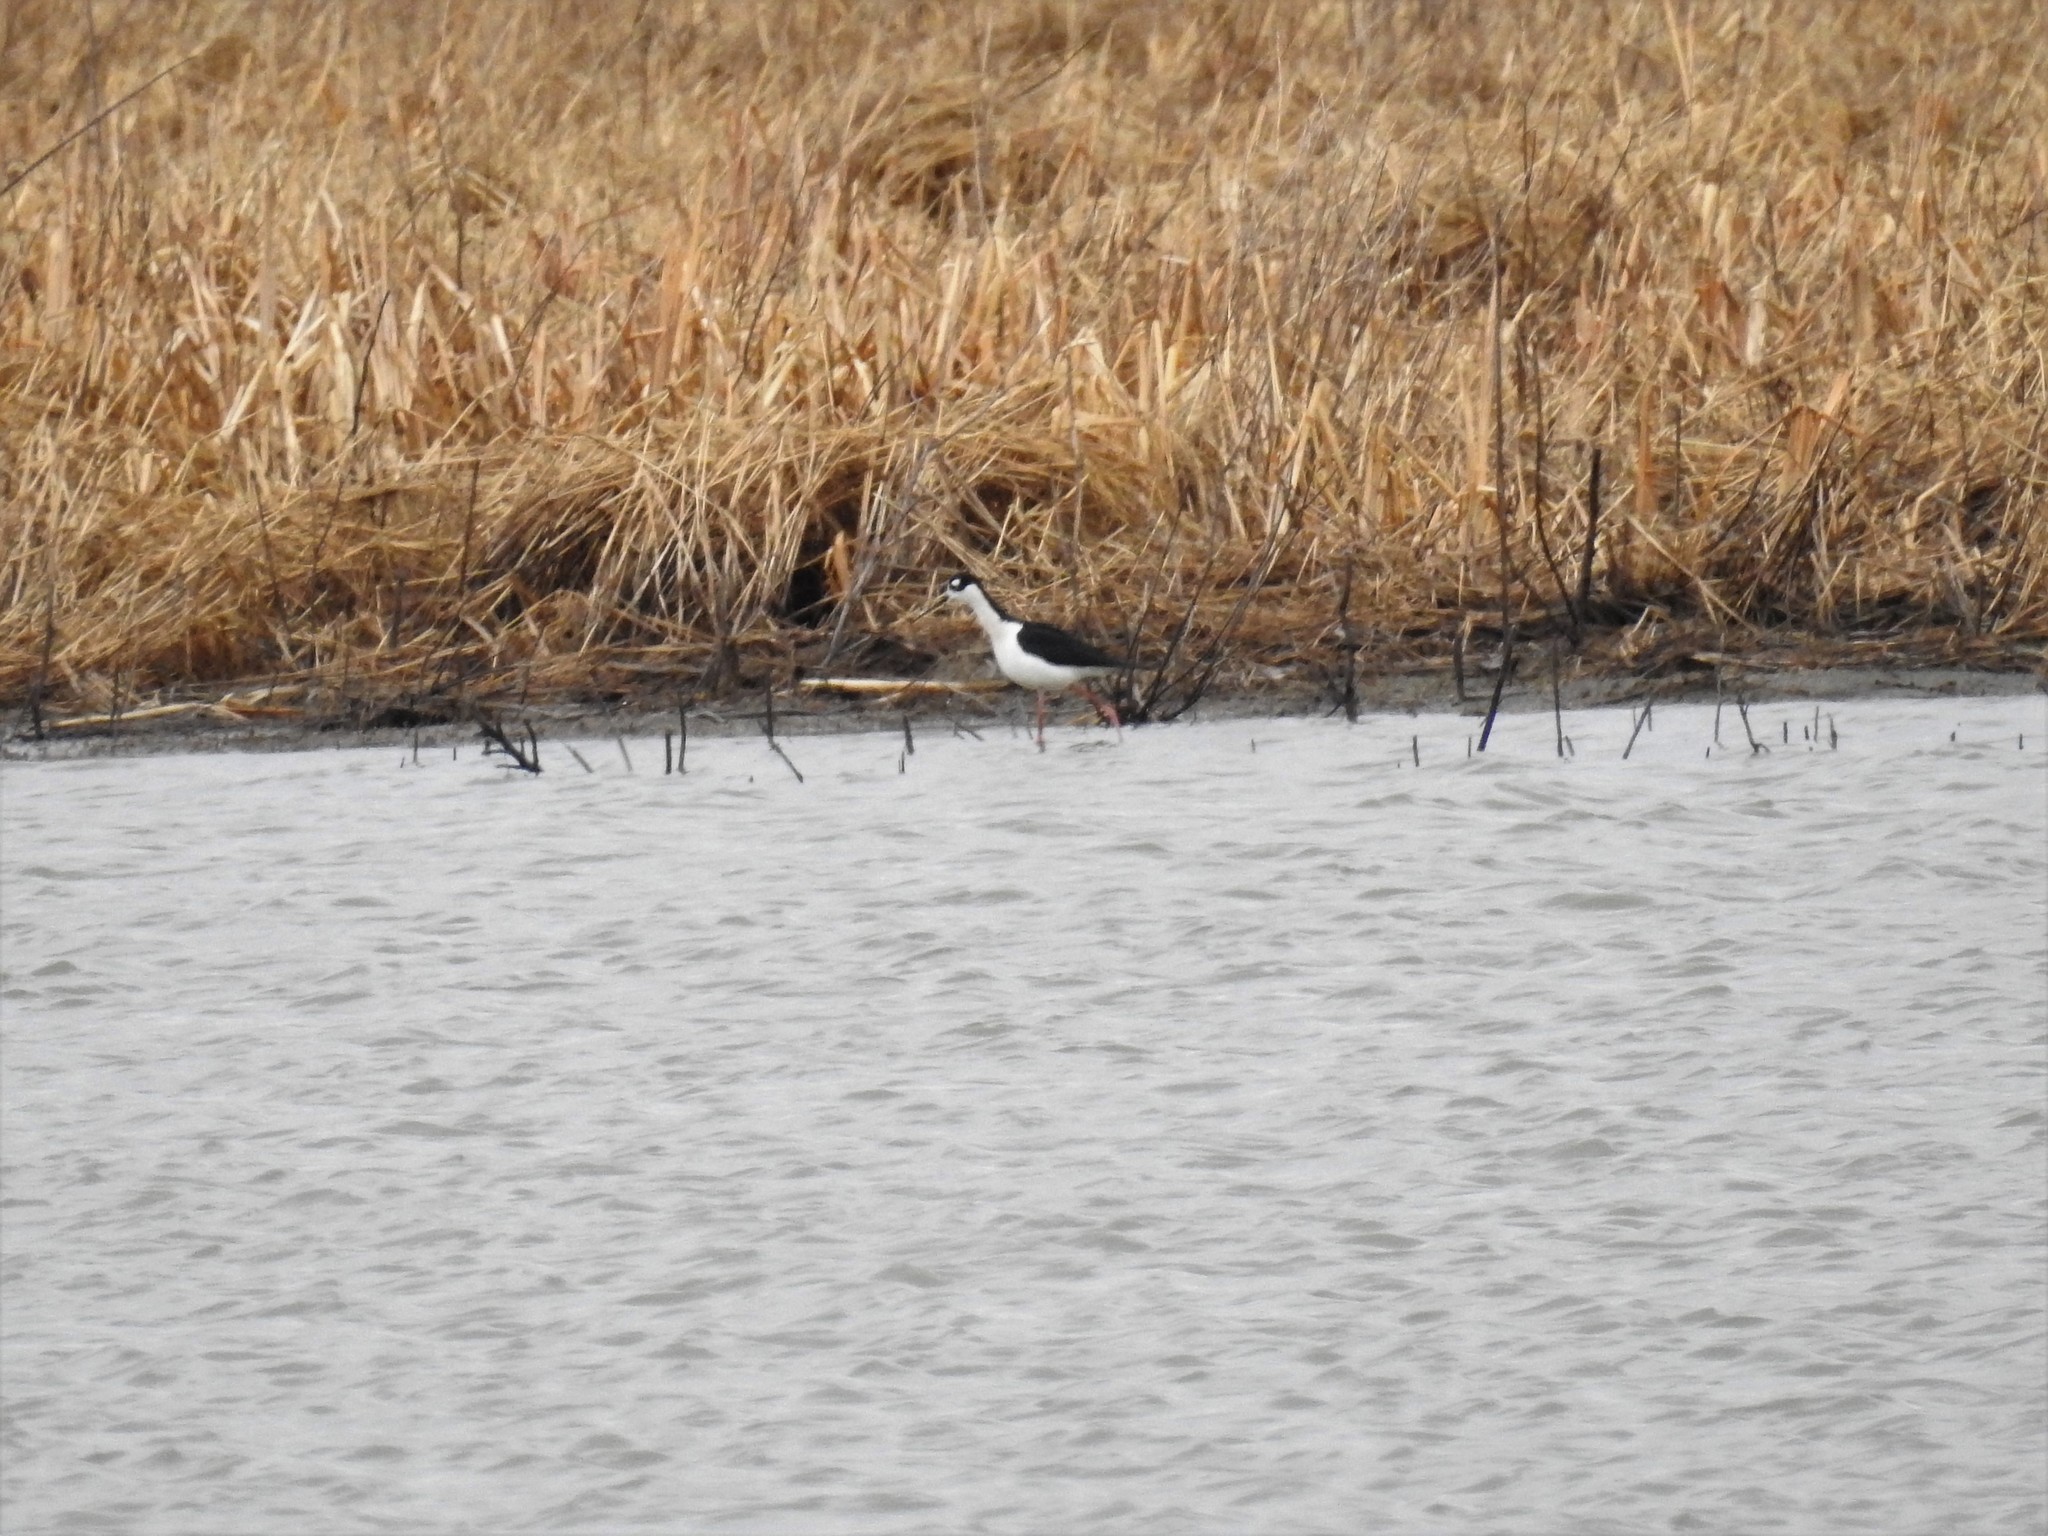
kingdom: Animalia
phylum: Chordata
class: Aves
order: Charadriiformes
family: Recurvirostridae
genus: Himantopus
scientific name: Himantopus mexicanus
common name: Black-necked stilt
